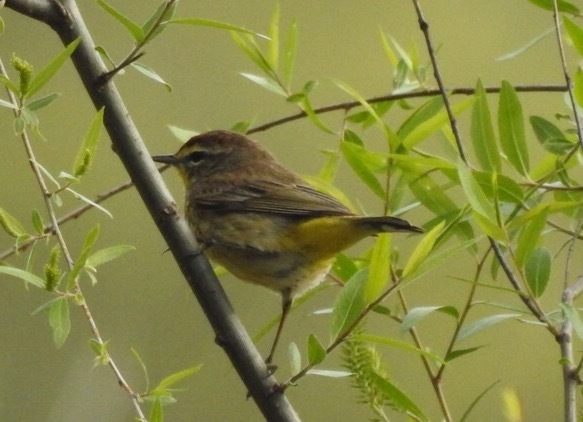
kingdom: Animalia
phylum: Chordata
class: Aves
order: Passeriformes
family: Parulidae
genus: Setophaga
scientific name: Setophaga palmarum
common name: Palm warbler
